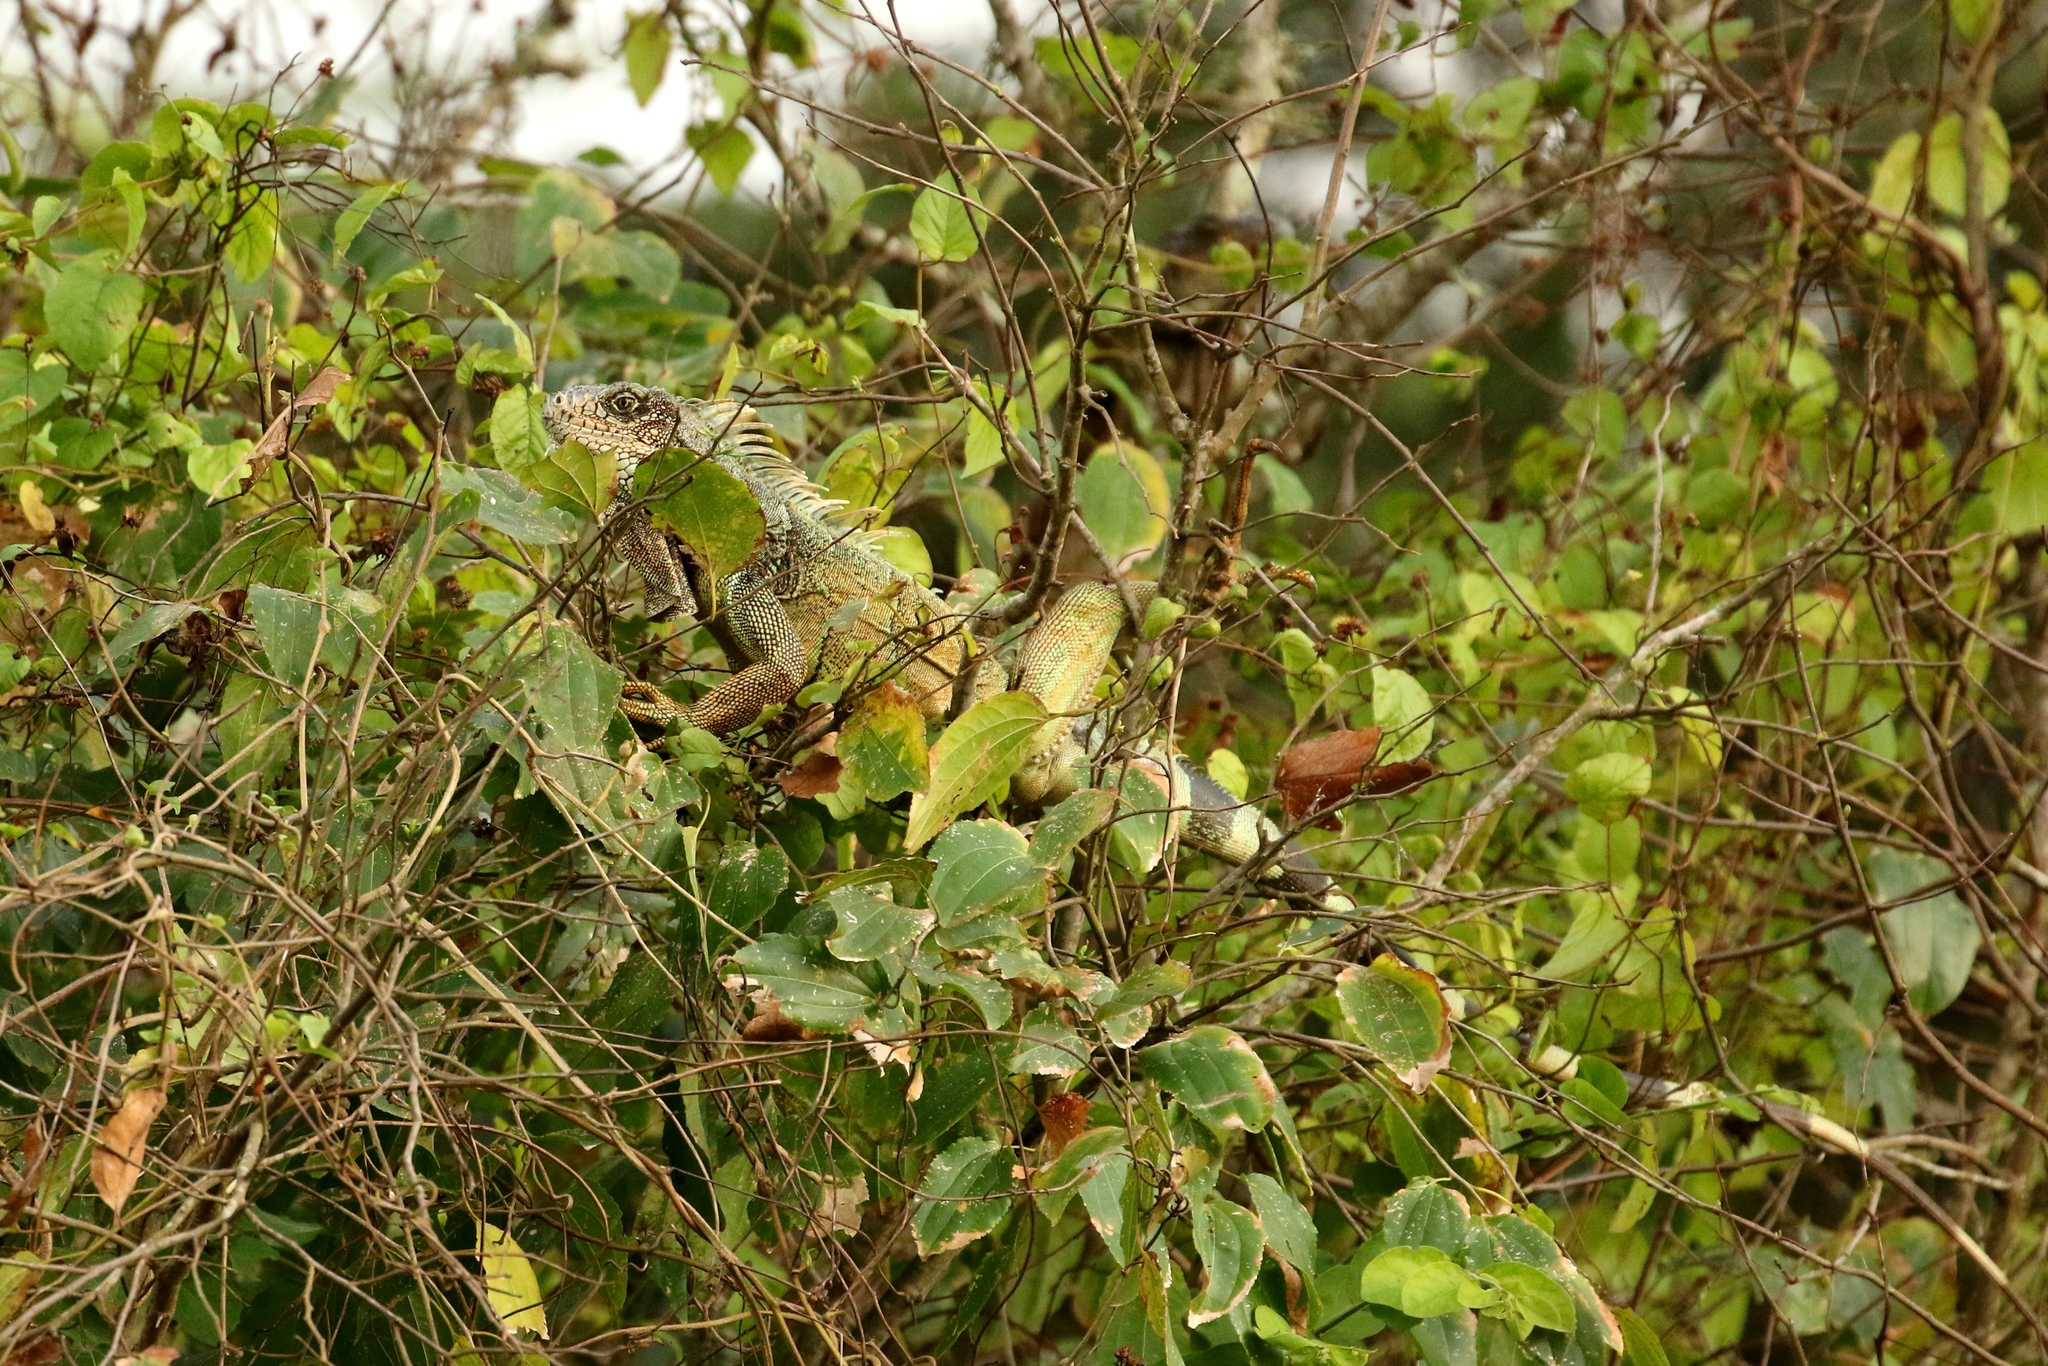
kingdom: Animalia
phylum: Chordata
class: Squamata
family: Iguanidae
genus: Iguana
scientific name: Iguana iguana
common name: Green iguana
